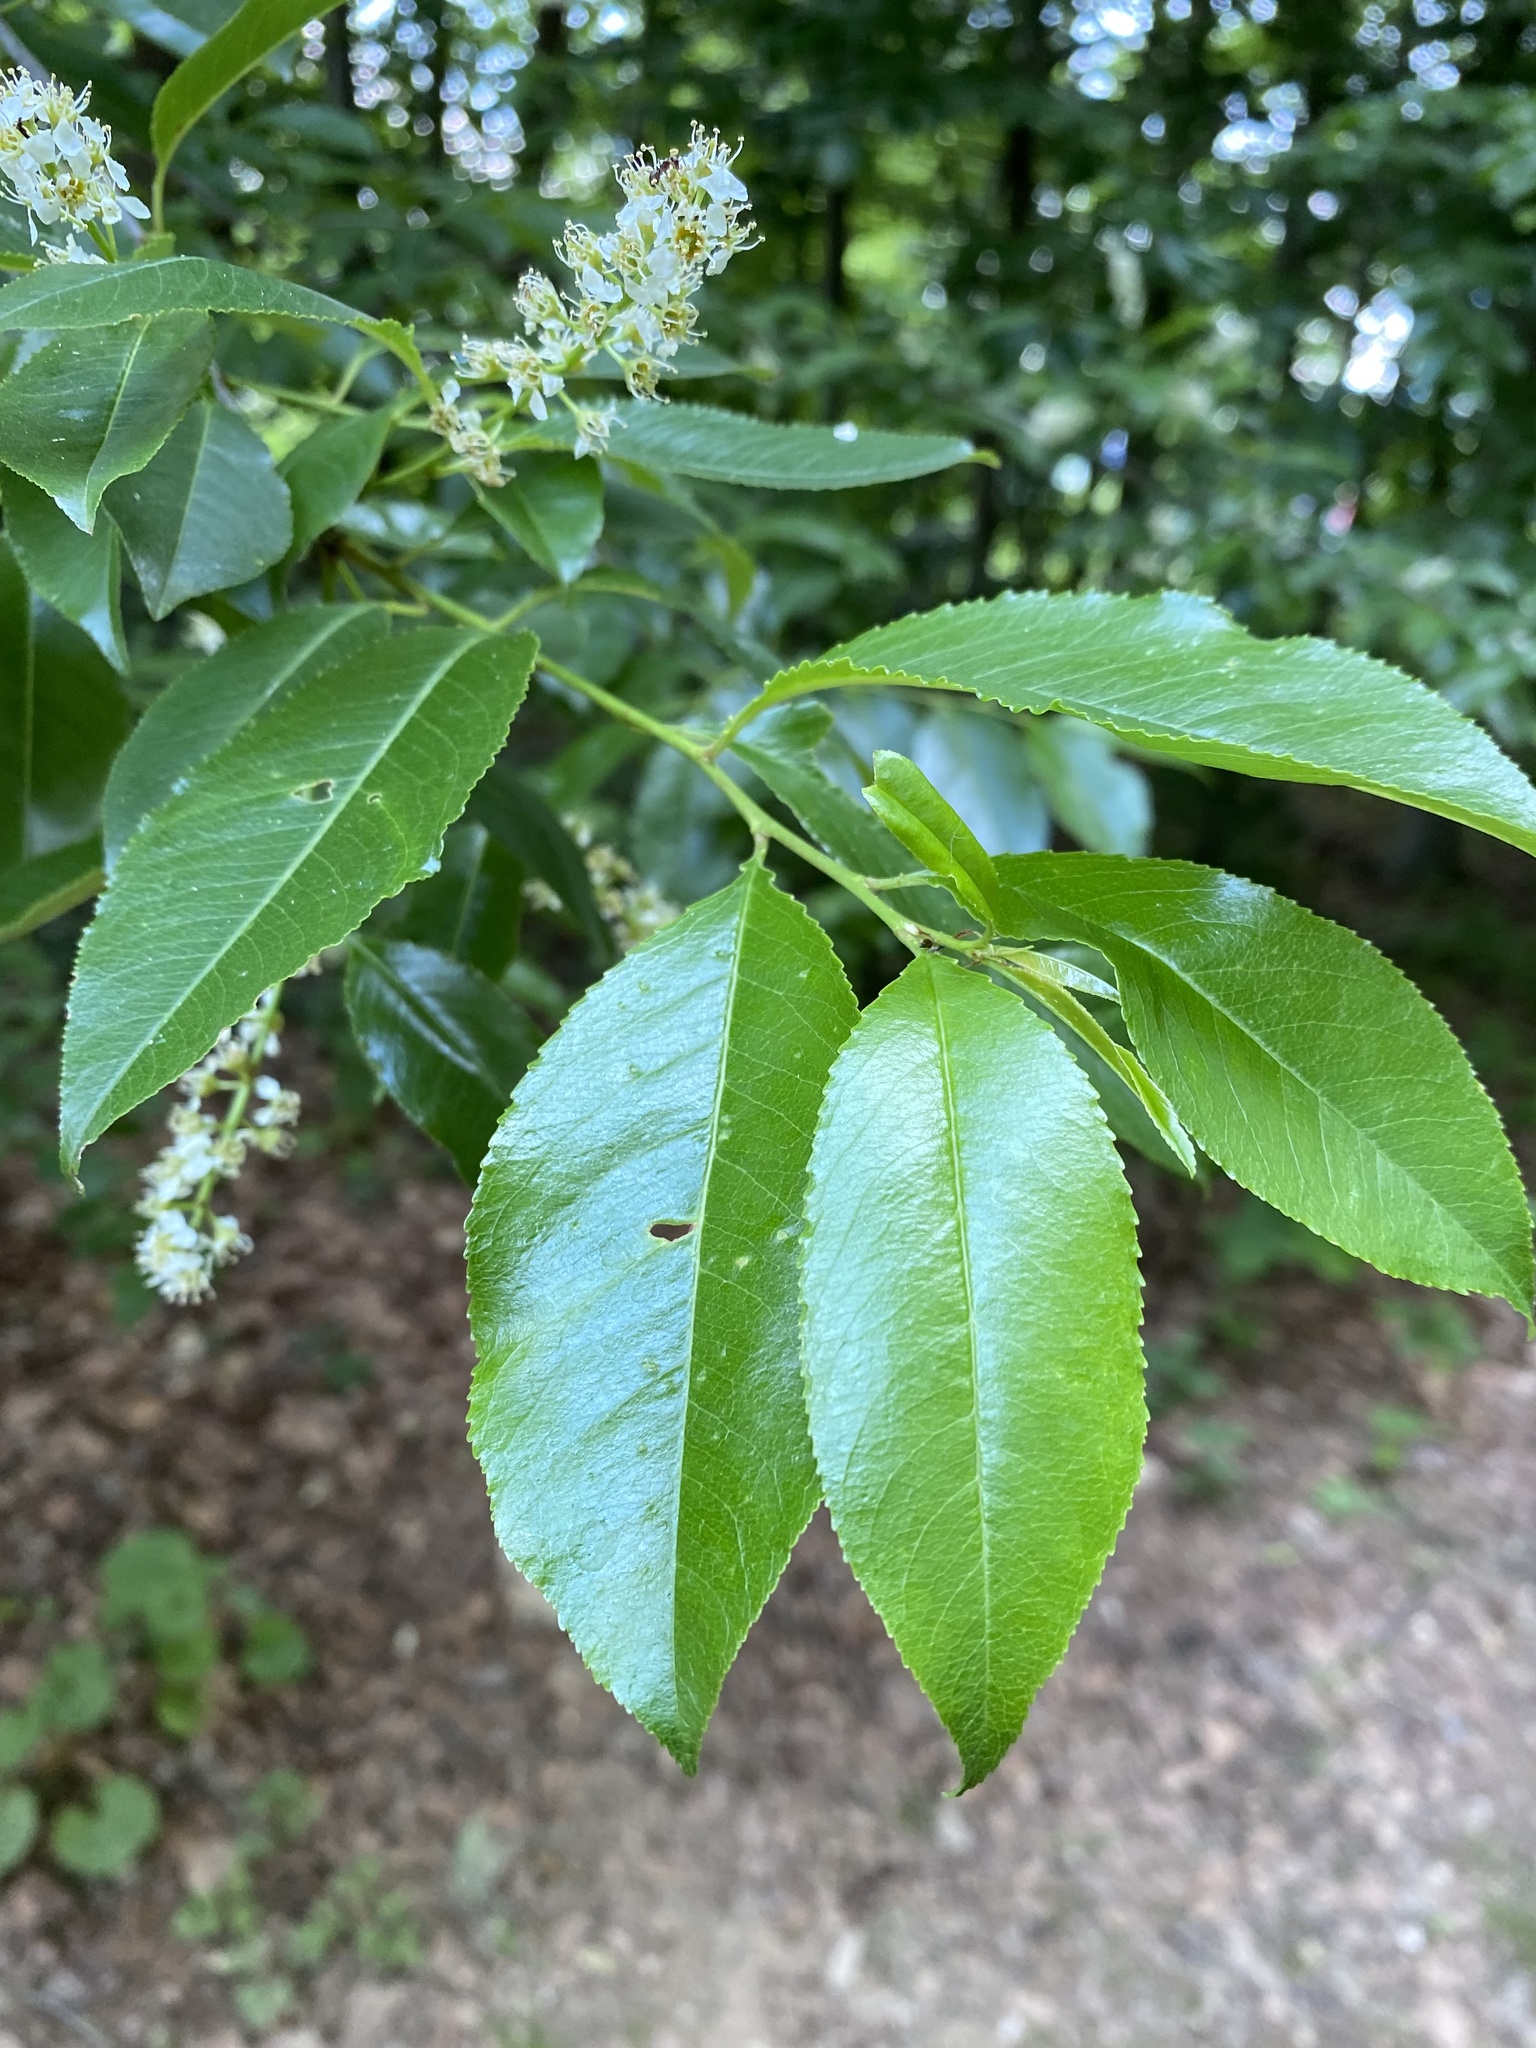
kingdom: Plantae
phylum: Tracheophyta
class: Magnoliopsida
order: Rosales
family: Rosaceae
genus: Prunus
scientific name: Prunus serotina
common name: Black cherry
